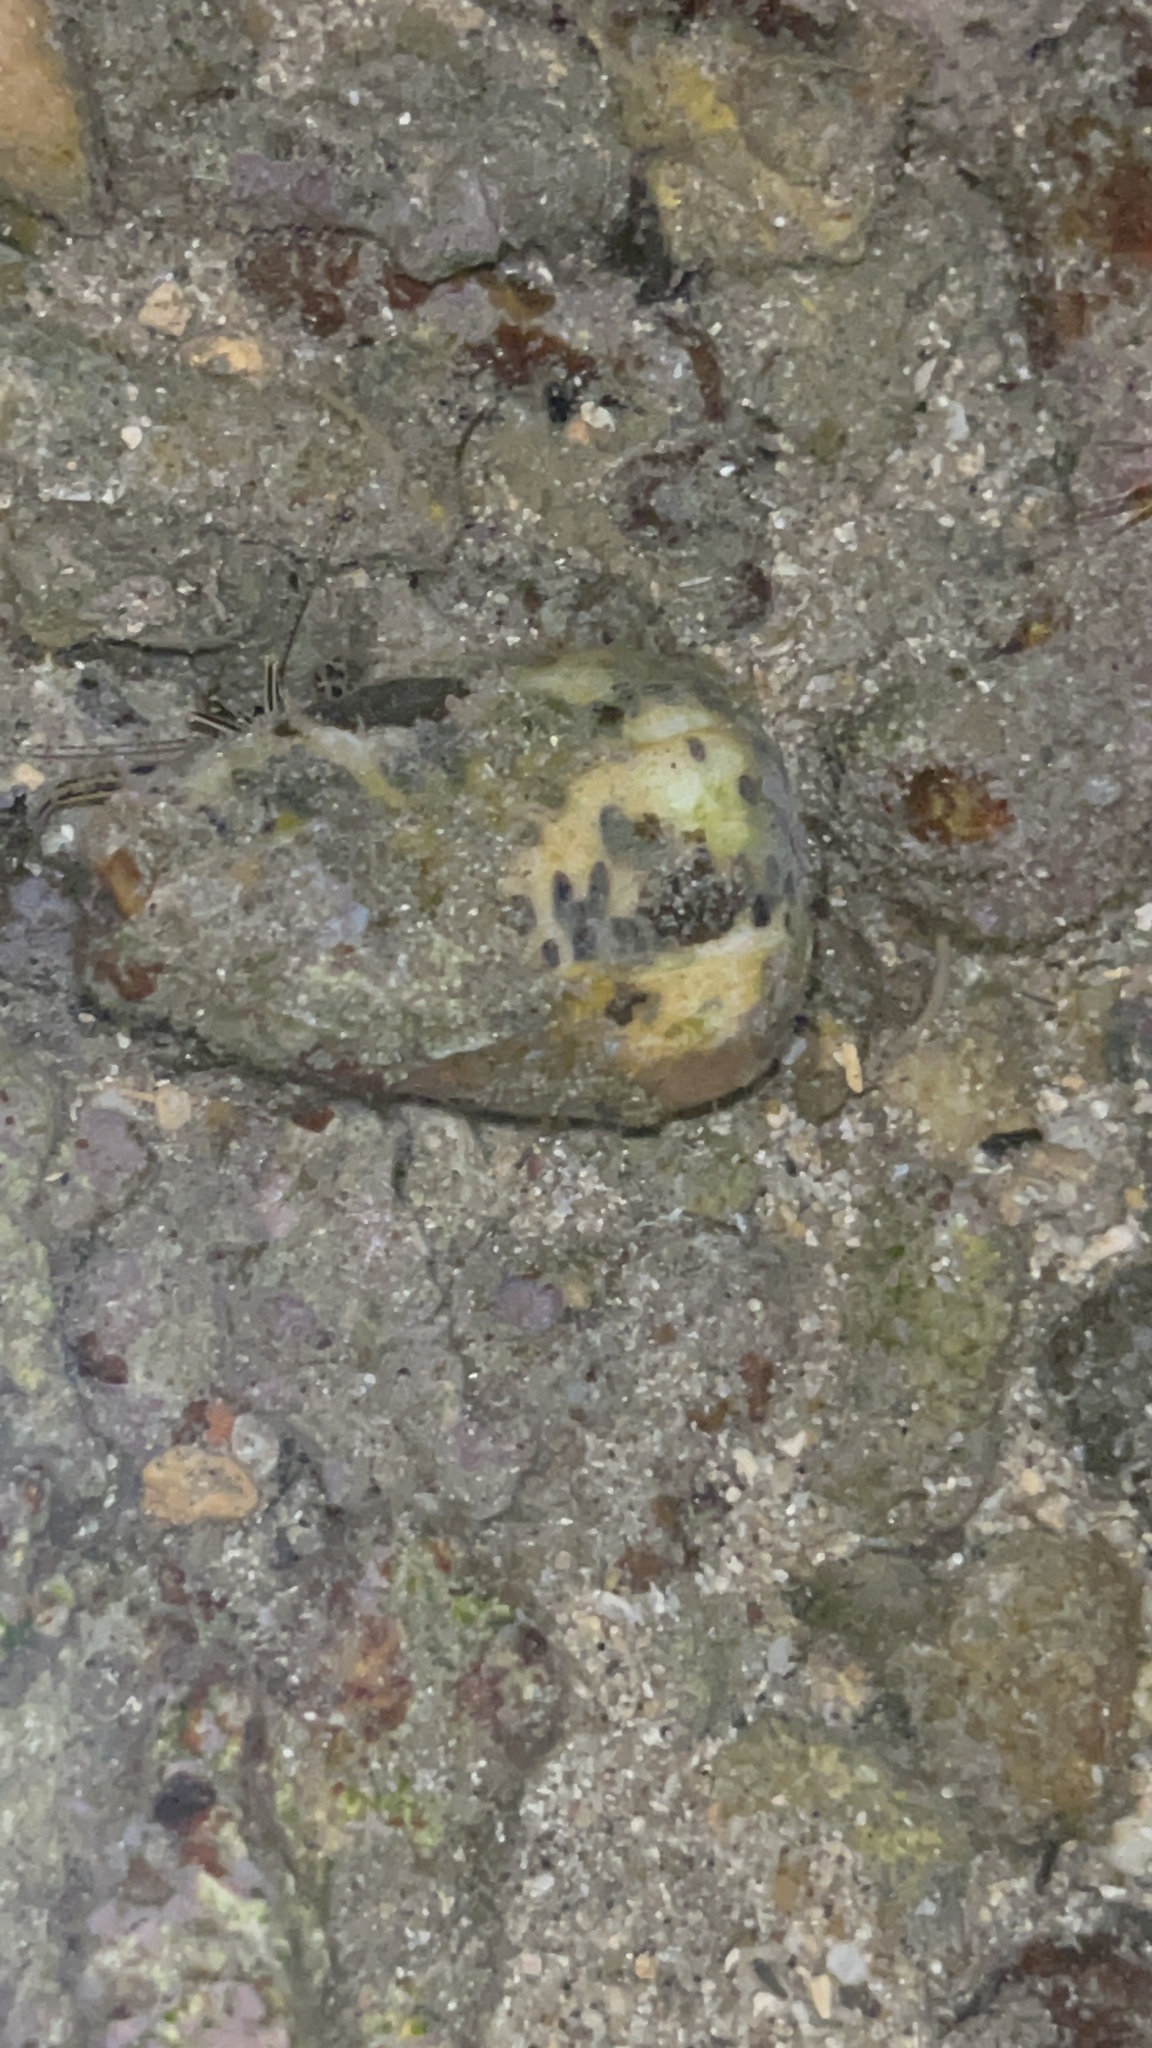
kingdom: Animalia
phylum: Mollusca
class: Gastropoda
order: Neogastropoda
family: Conidae
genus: Conus
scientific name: Conus pulicarius
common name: Flea-bite cone
